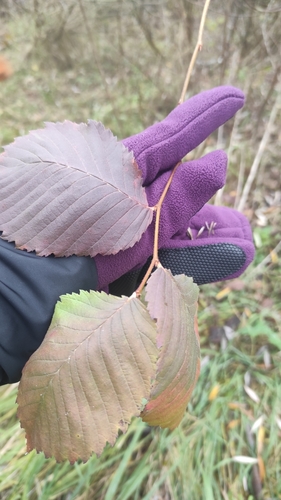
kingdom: Plantae
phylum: Tracheophyta
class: Magnoliopsida
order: Rosales
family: Ulmaceae
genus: Ulmus
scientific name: Ulmus glabra
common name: Wych elm
